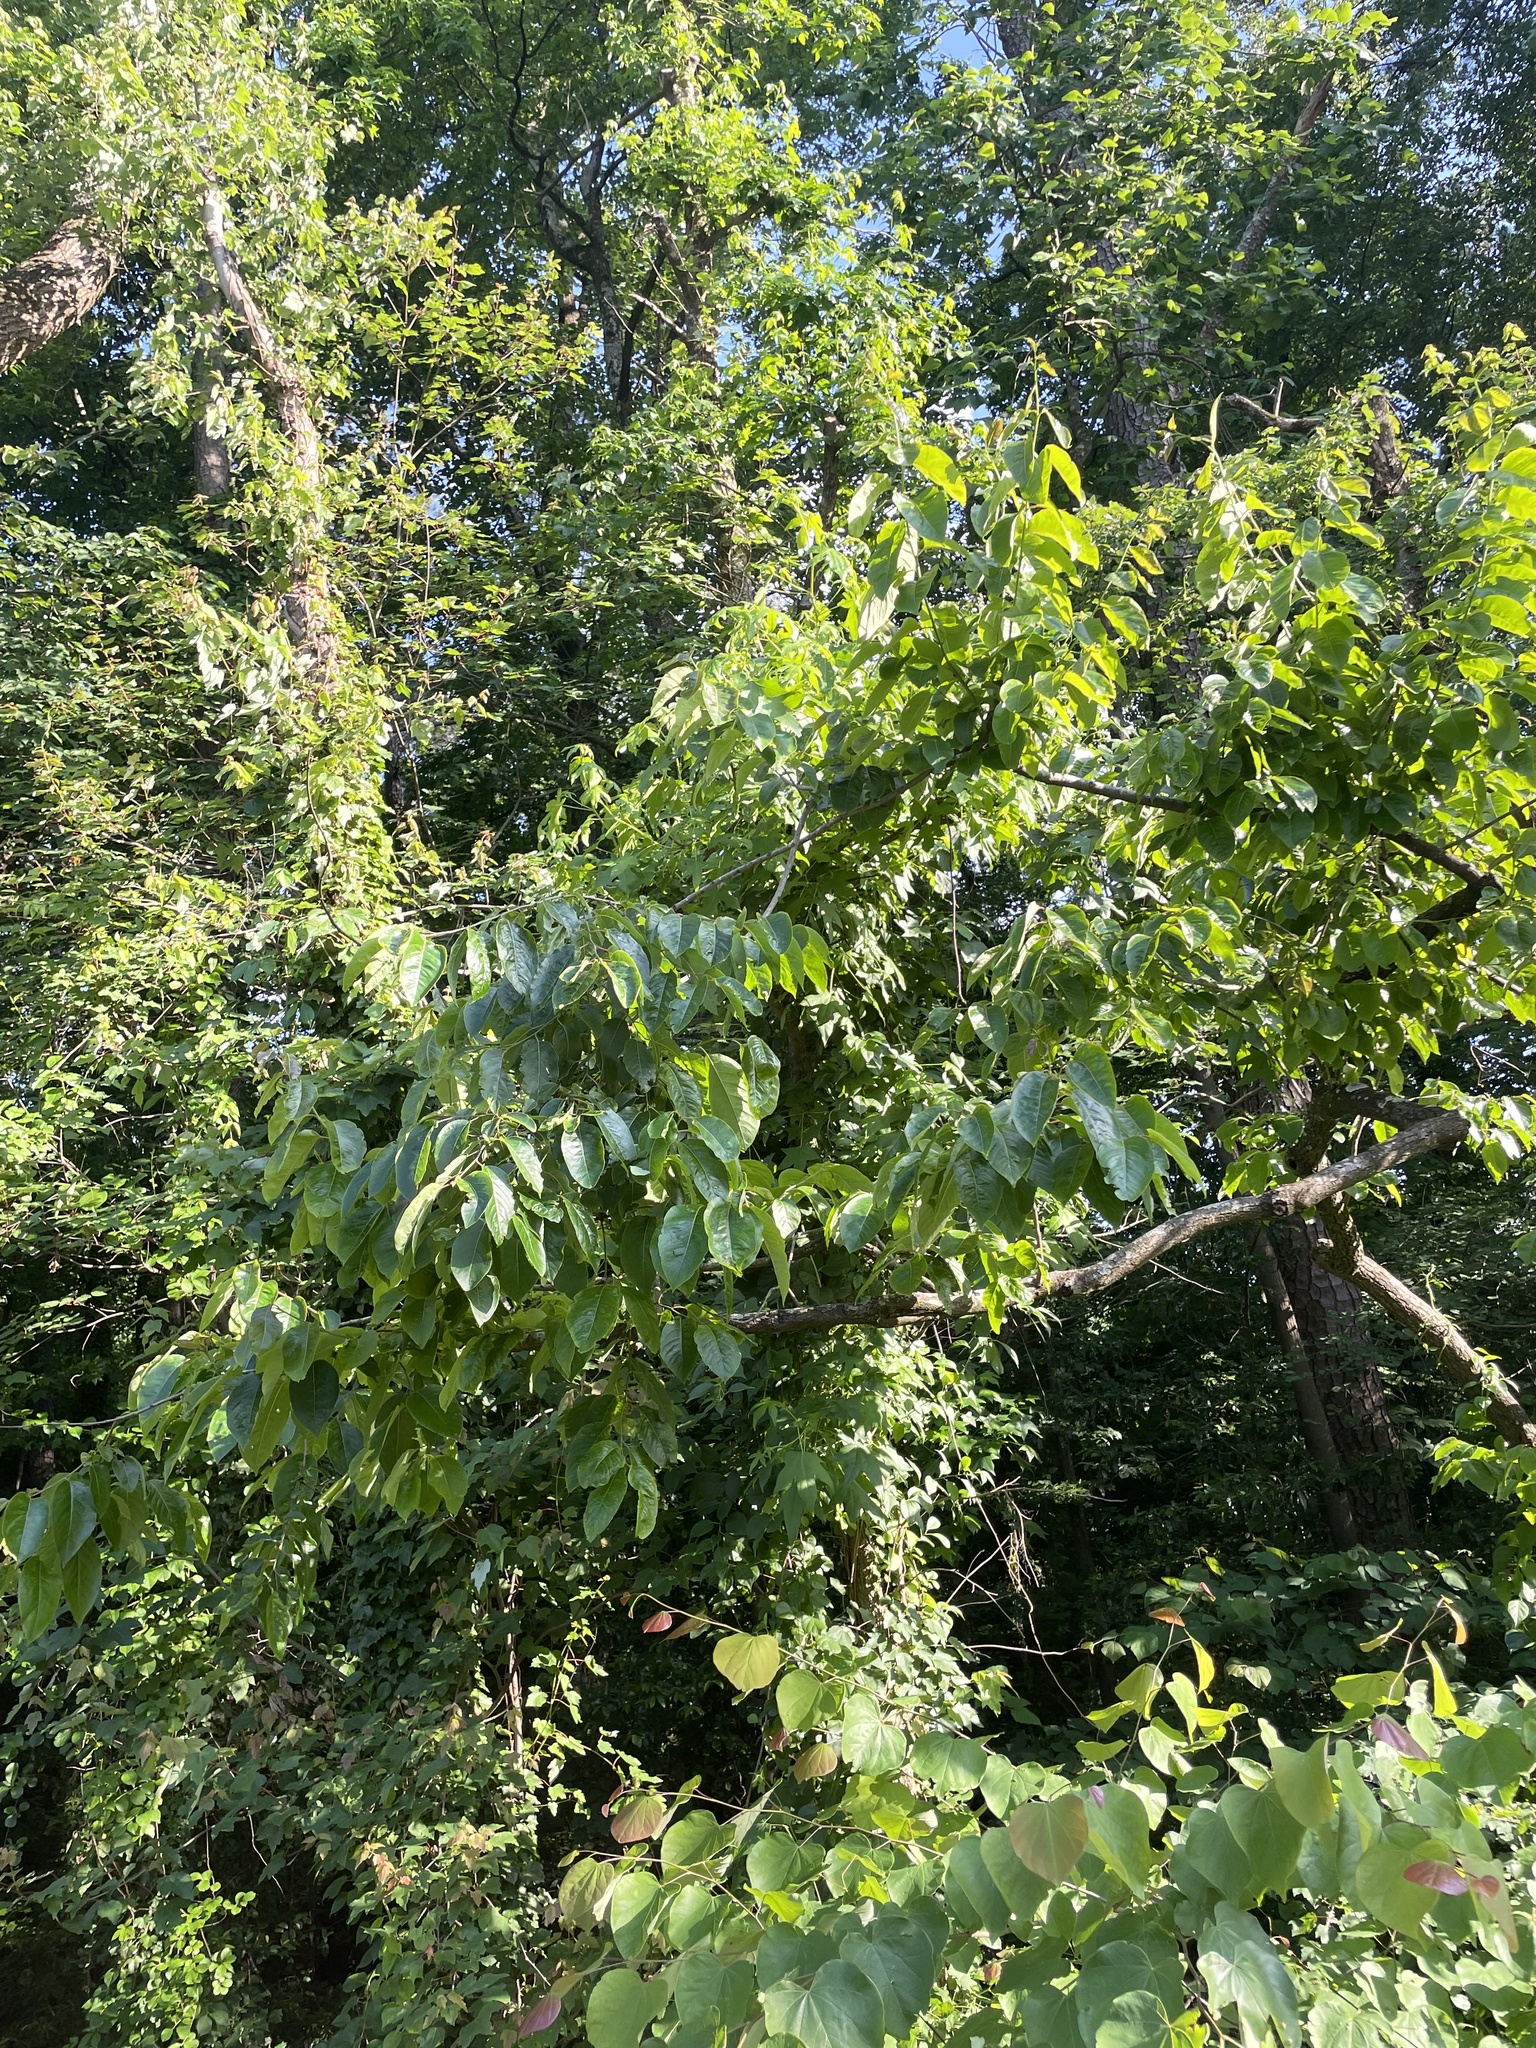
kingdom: Plantae
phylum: Tracheophyta
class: Magnoliopsida
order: Ericales
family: Ebenaceae
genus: Diospyros
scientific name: Diospyros virginiana
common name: Persimmon
